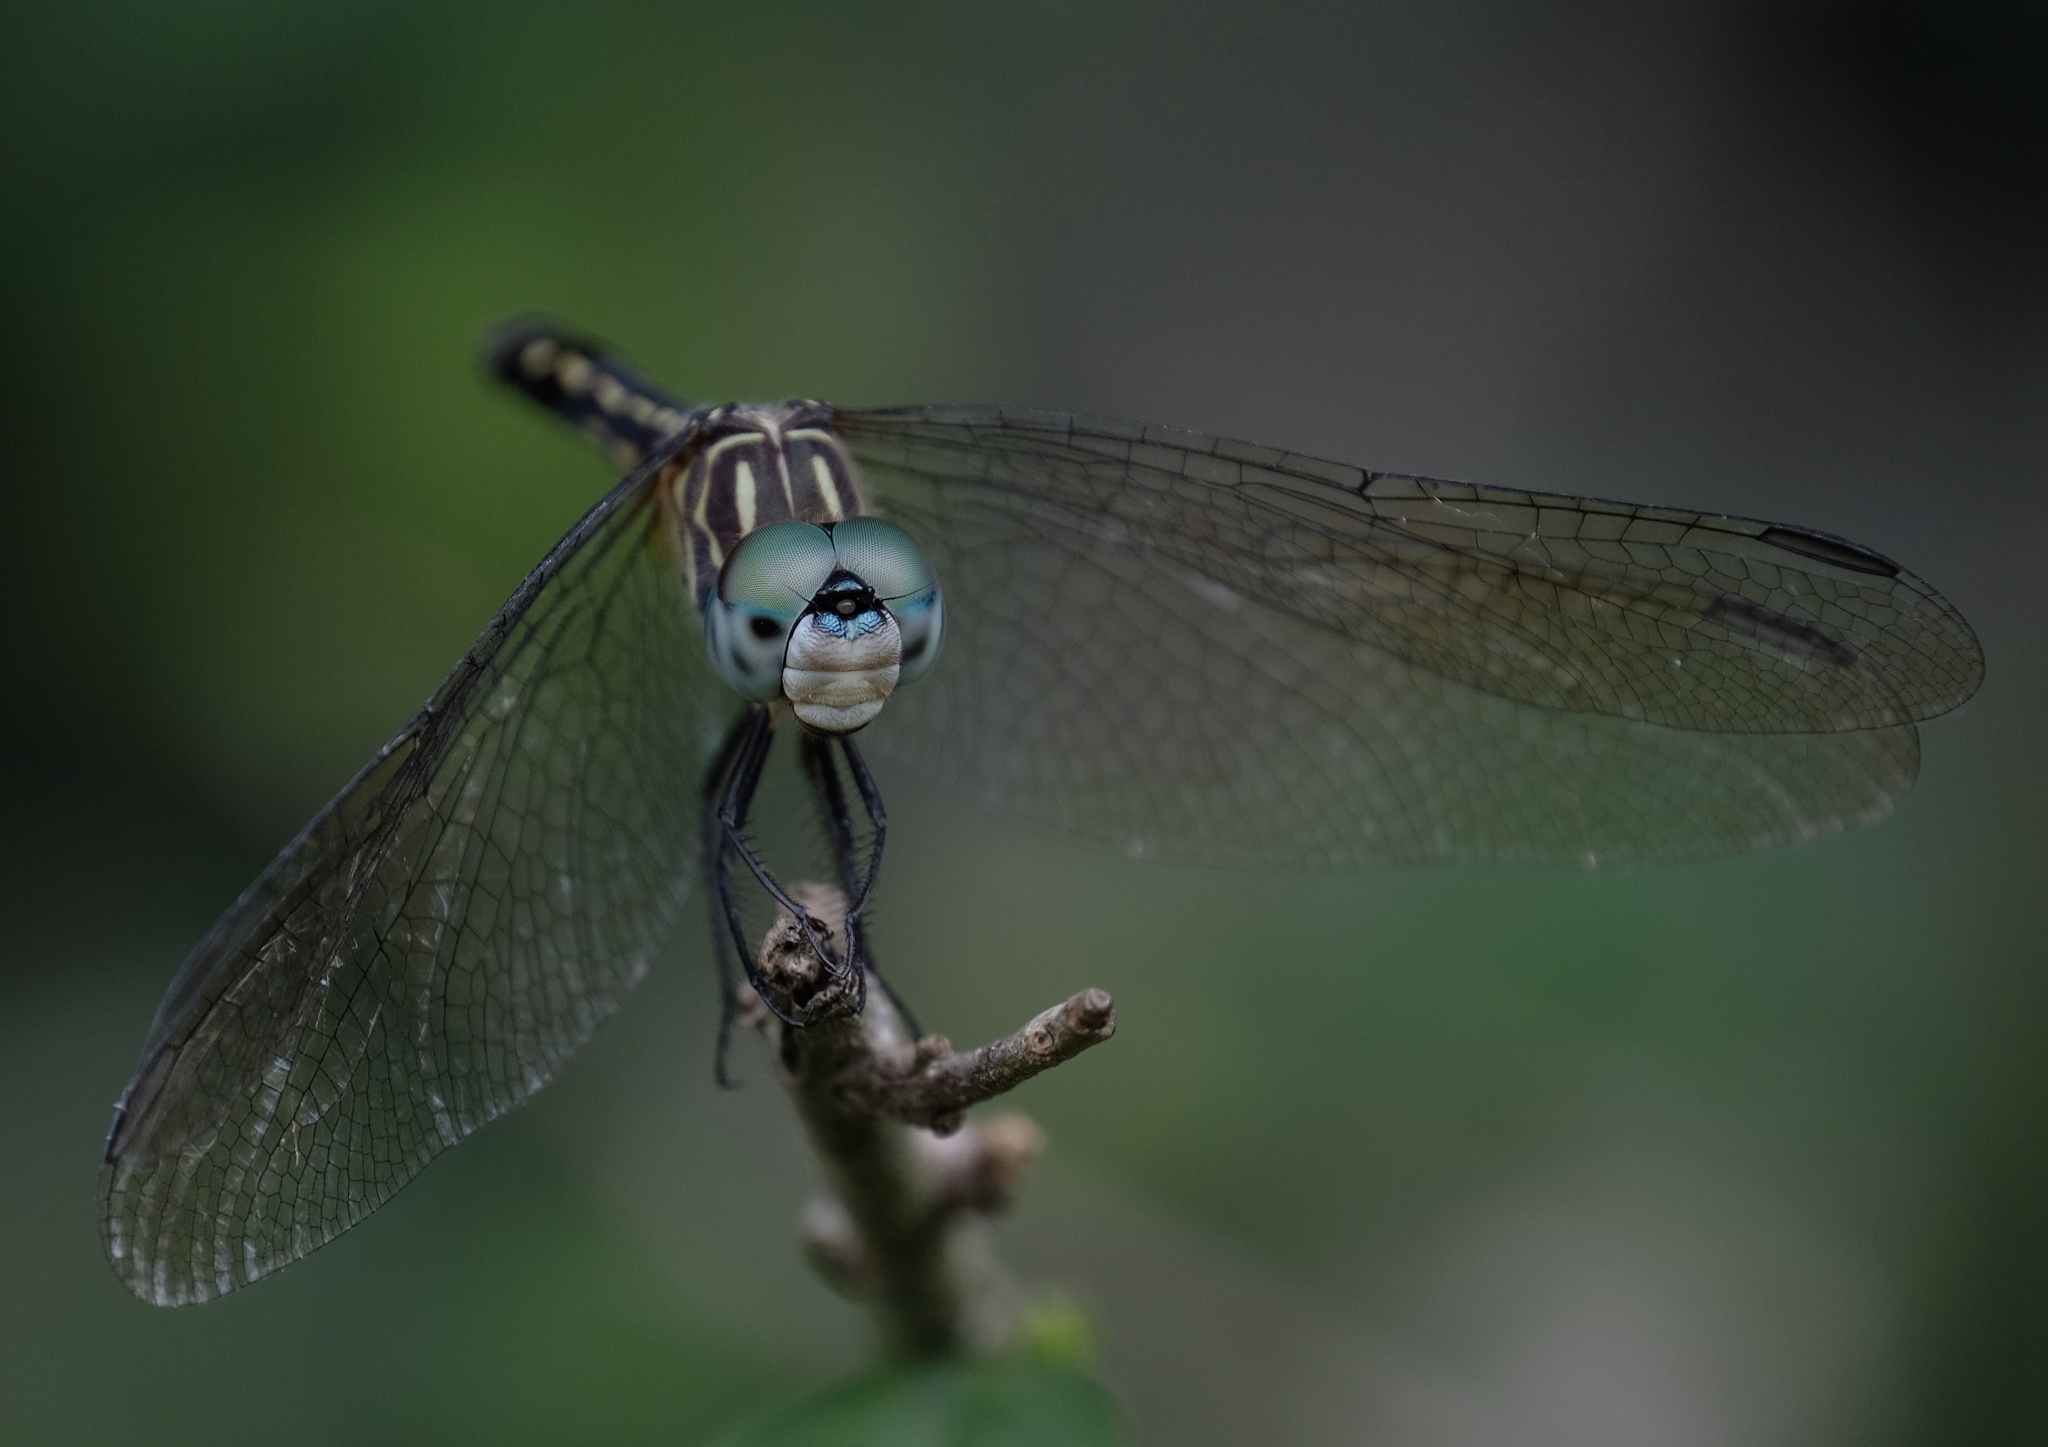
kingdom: Animalia
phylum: Arthropoda
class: Insecta
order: Odonata
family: Libellulidae
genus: Pachydiplax
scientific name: Pachydiplax longipennis
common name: Blue dasher
